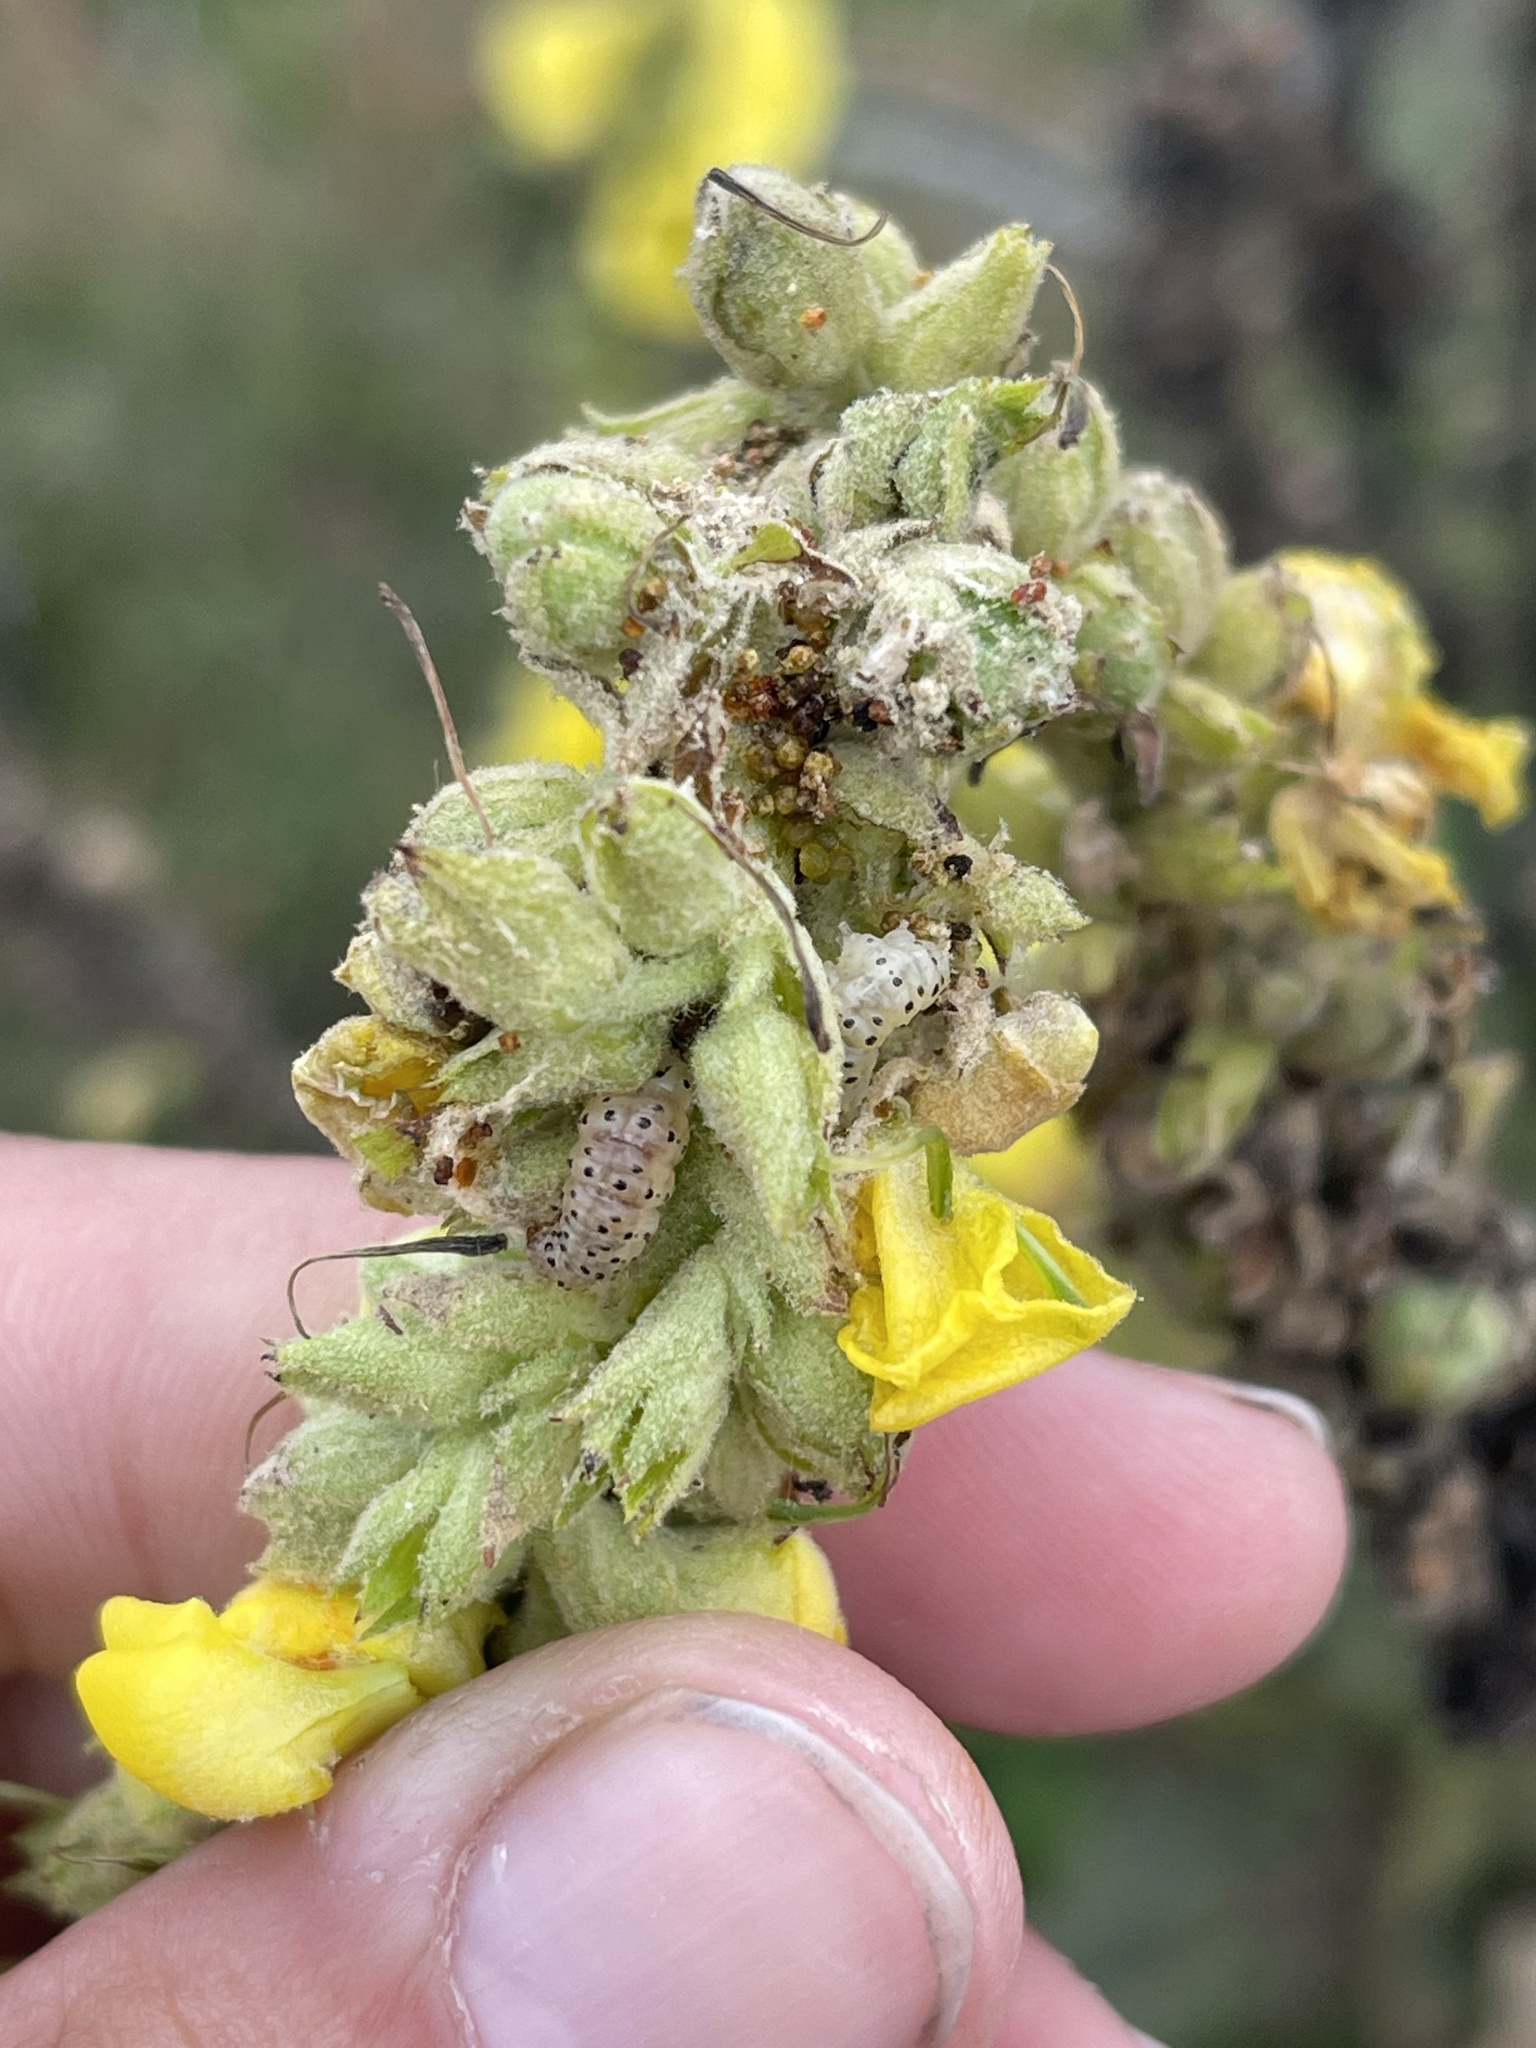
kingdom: Animalia
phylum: Arthropoda
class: Insecta
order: Lepidoptera
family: Crambidae
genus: Paracorsia
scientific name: Paracorsia repandalis
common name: Mullein moth
